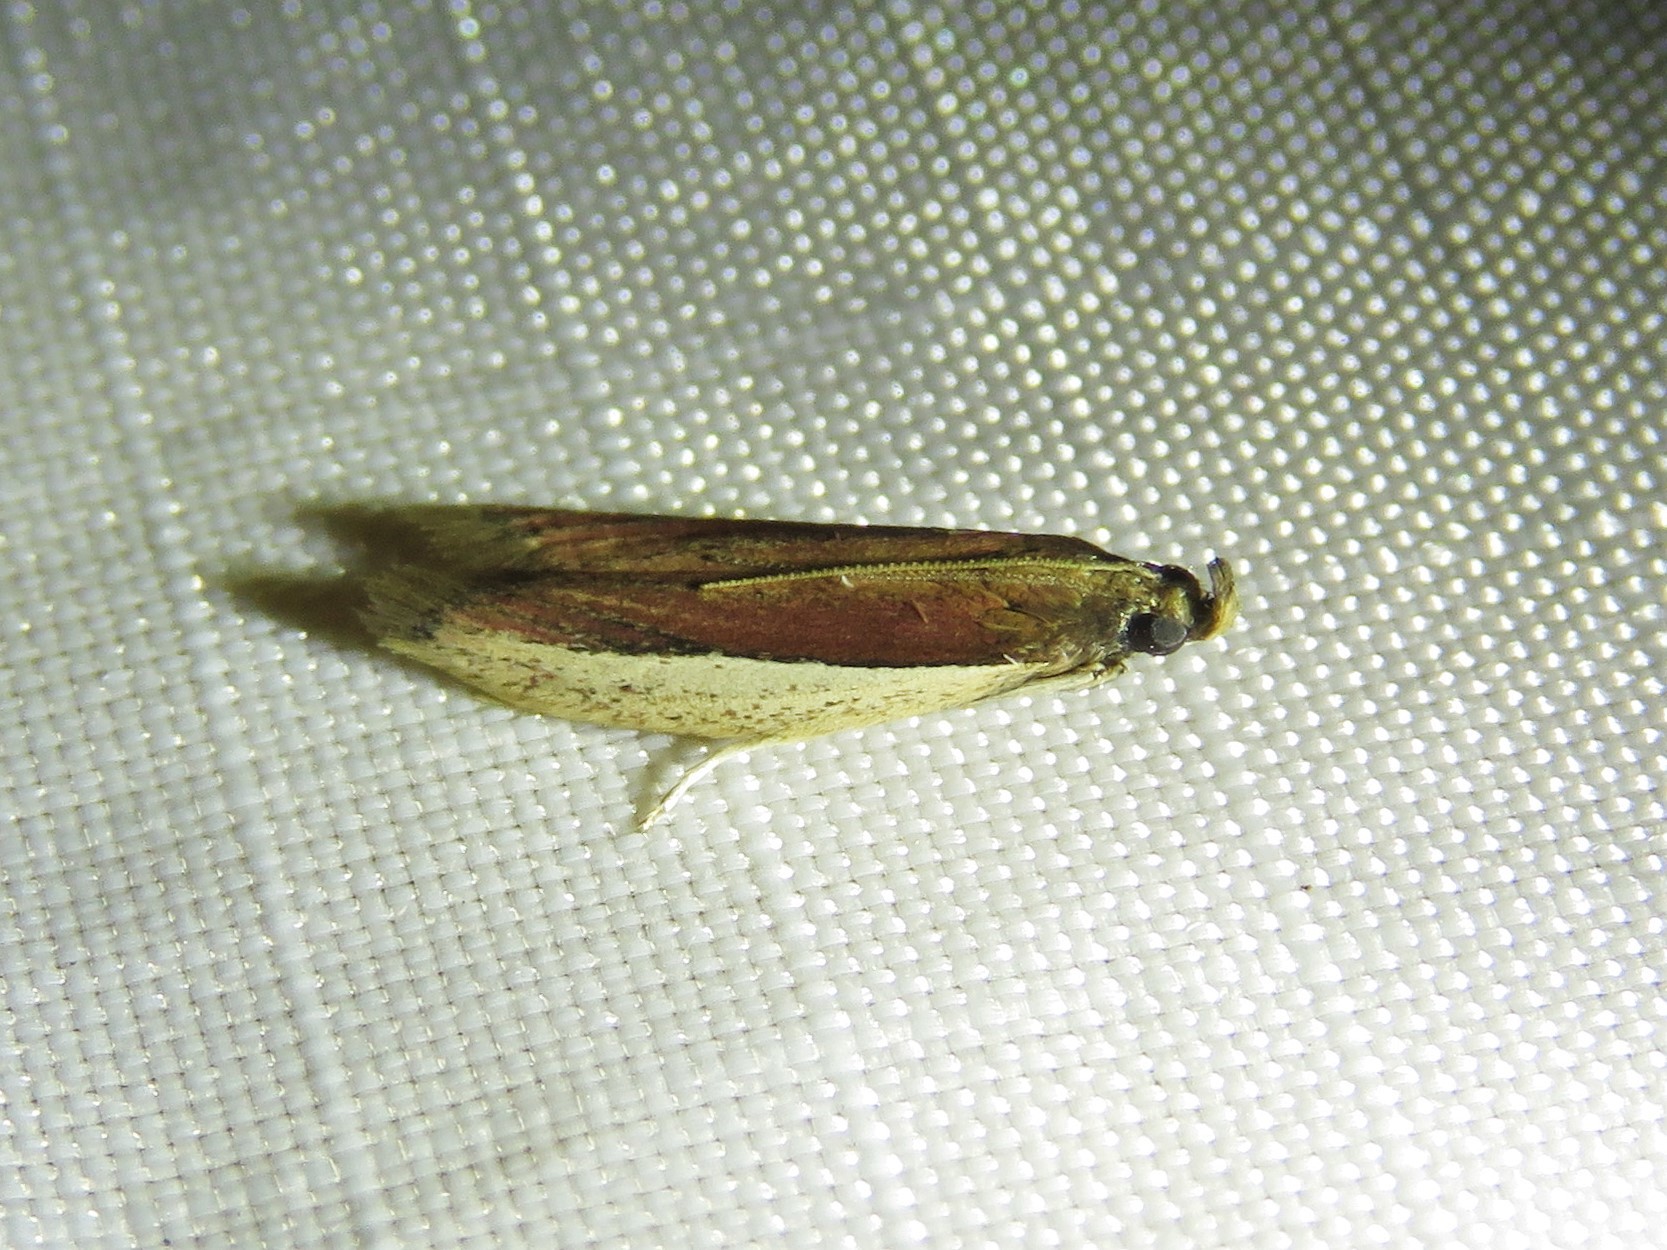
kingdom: Animalia
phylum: Arthropoda
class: Insecta
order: Lepidoptera
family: Pyralidae
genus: Tampa
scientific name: Tampa dimediatella
